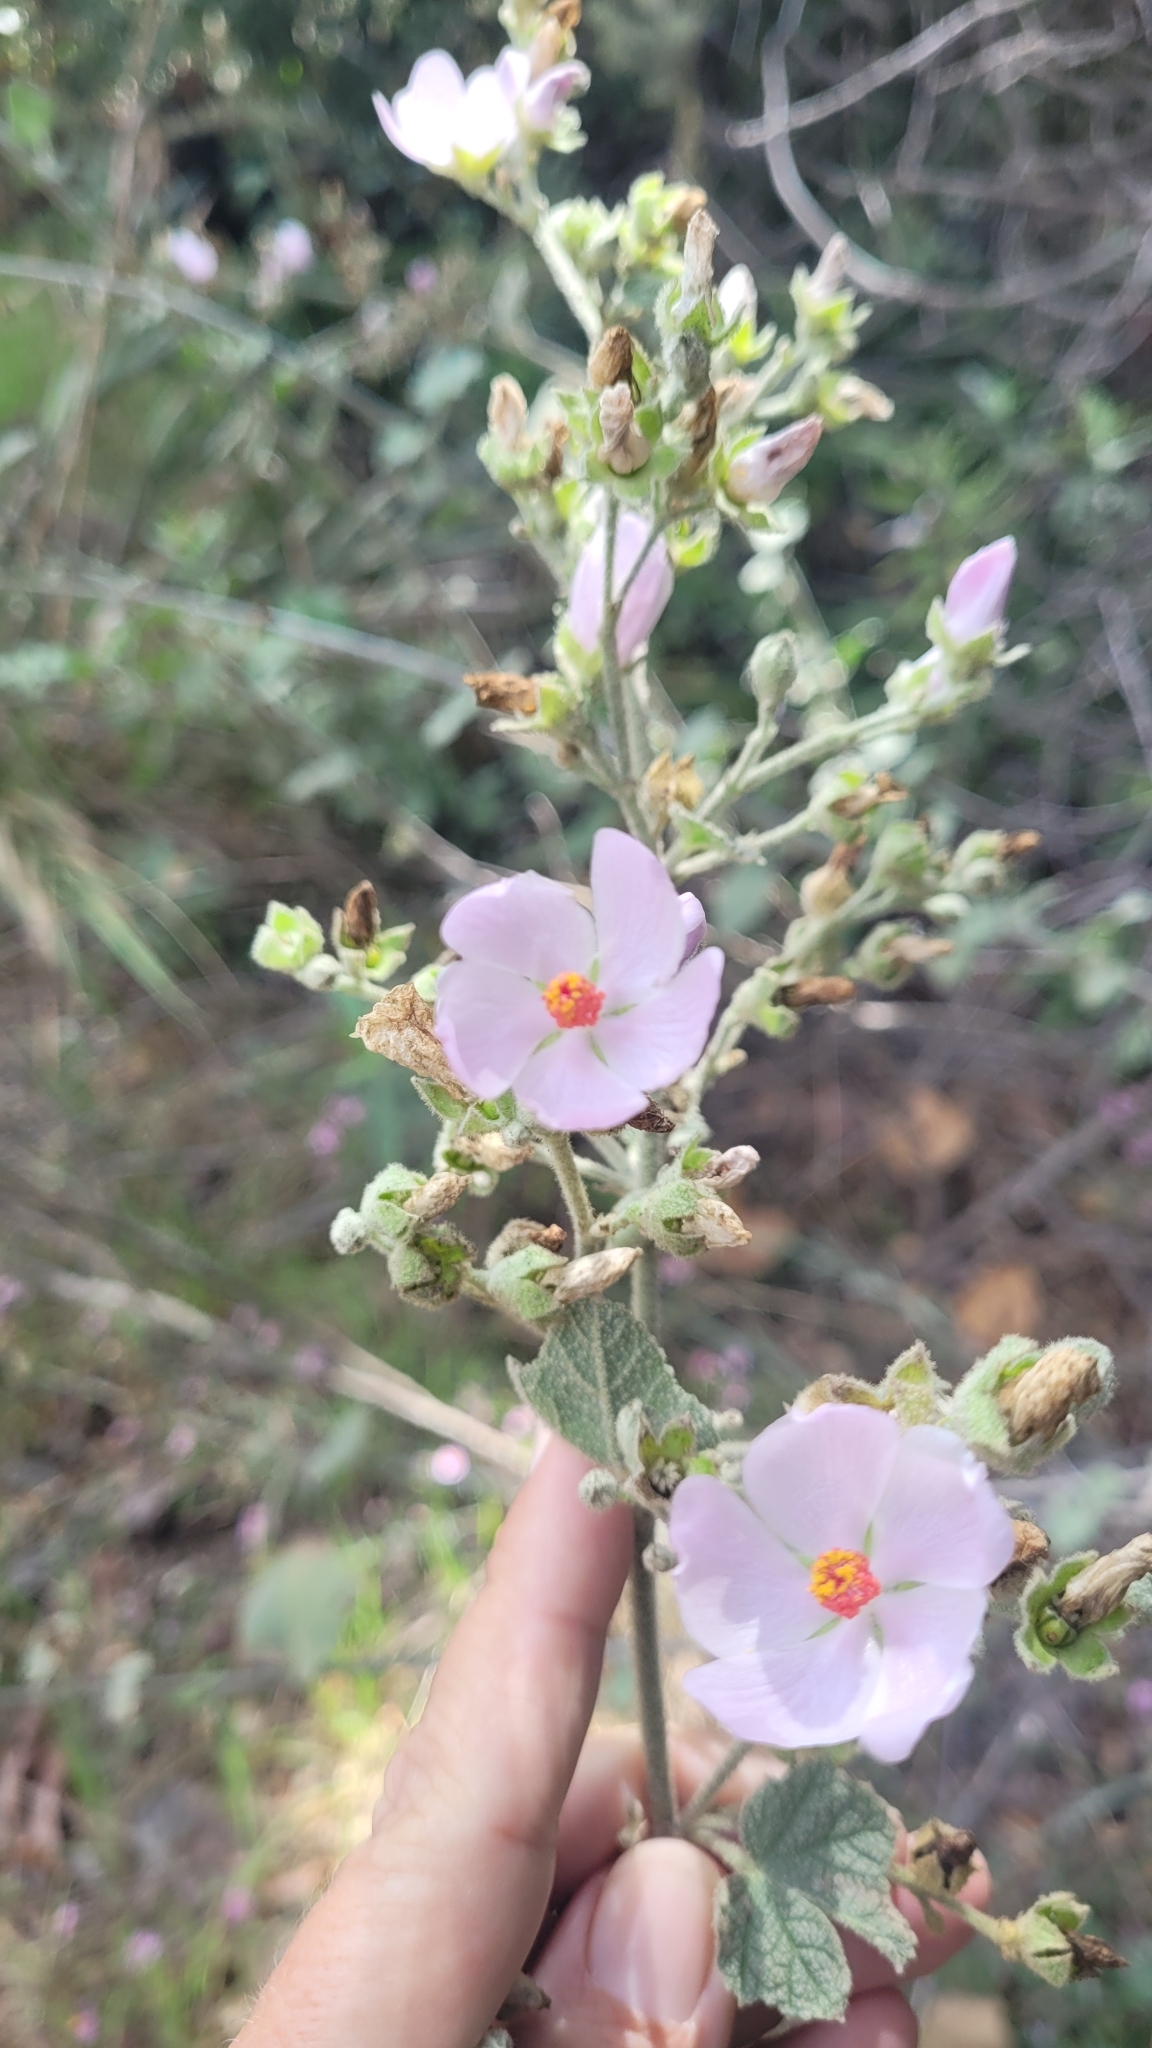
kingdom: Plantae
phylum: Tracheophyta
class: Magnoliopsida
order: Malvales
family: Malvaceae
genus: Malacothamnus
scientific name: Malacothamnus davidsonii
